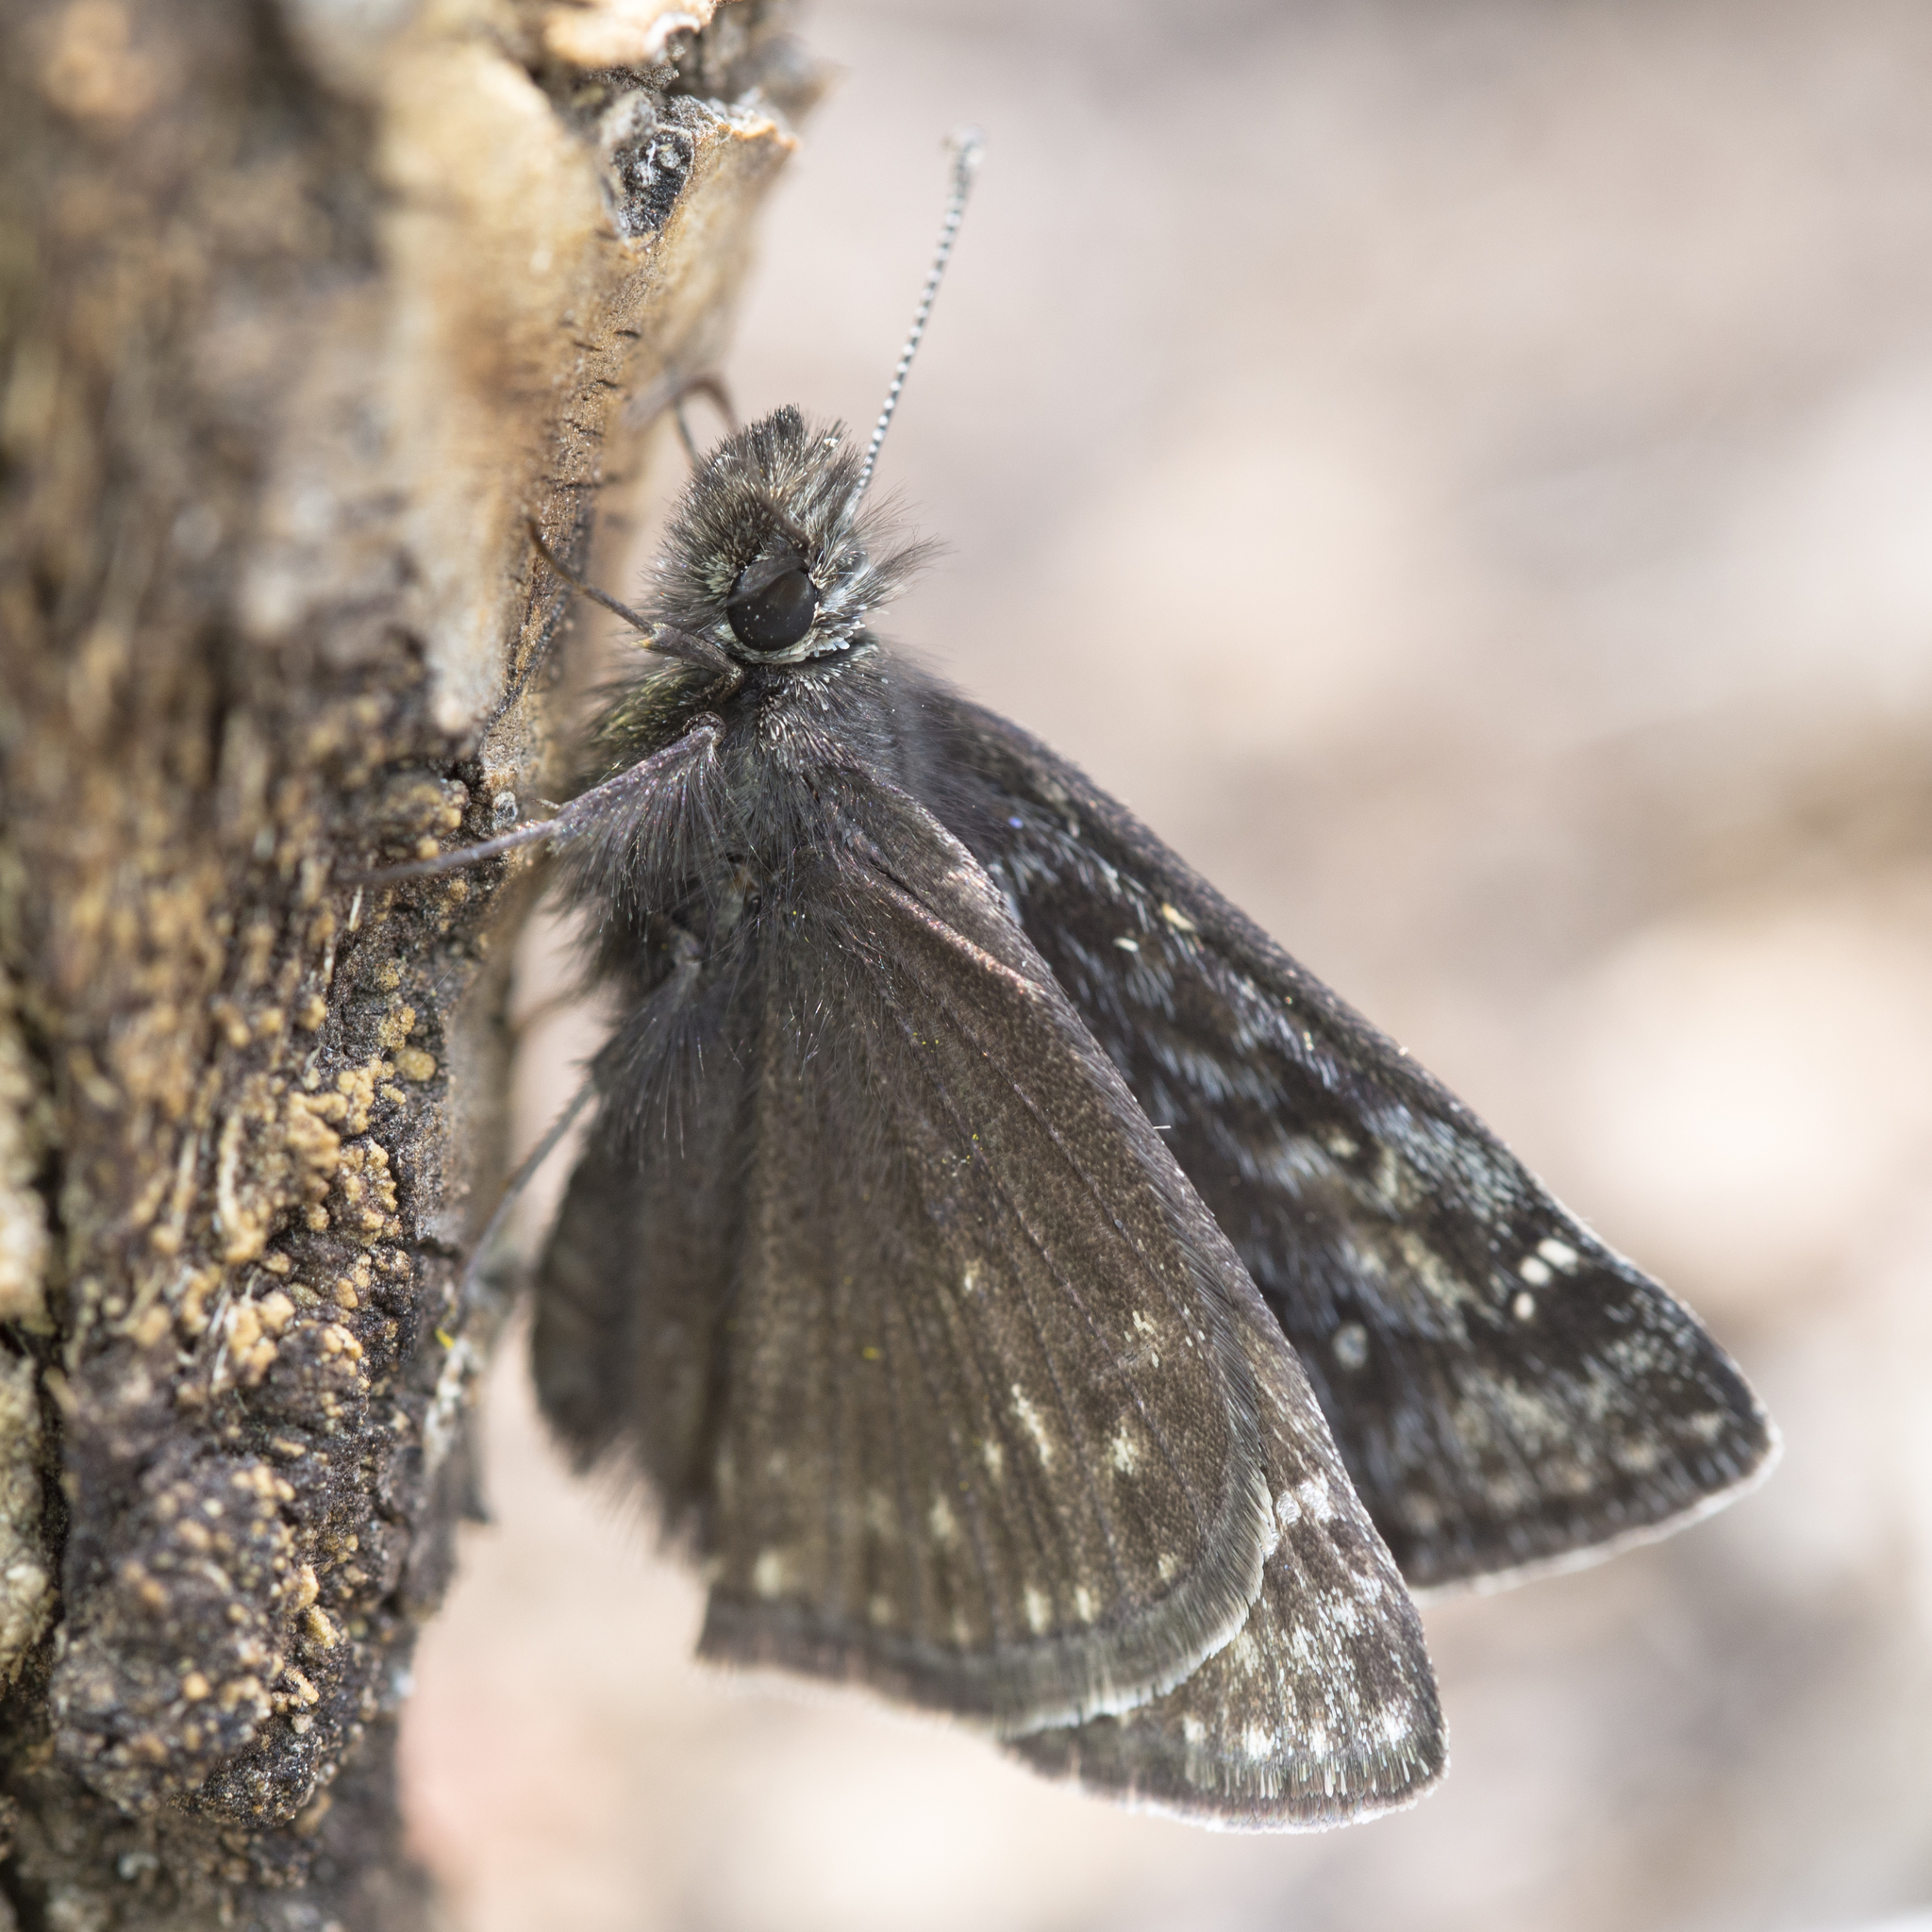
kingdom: Animalia
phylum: Arthropoda
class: Insecta
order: Lepidoptera
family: Hesperiidae
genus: Erynnis
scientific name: Erynnis persius
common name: Persius duskywing
